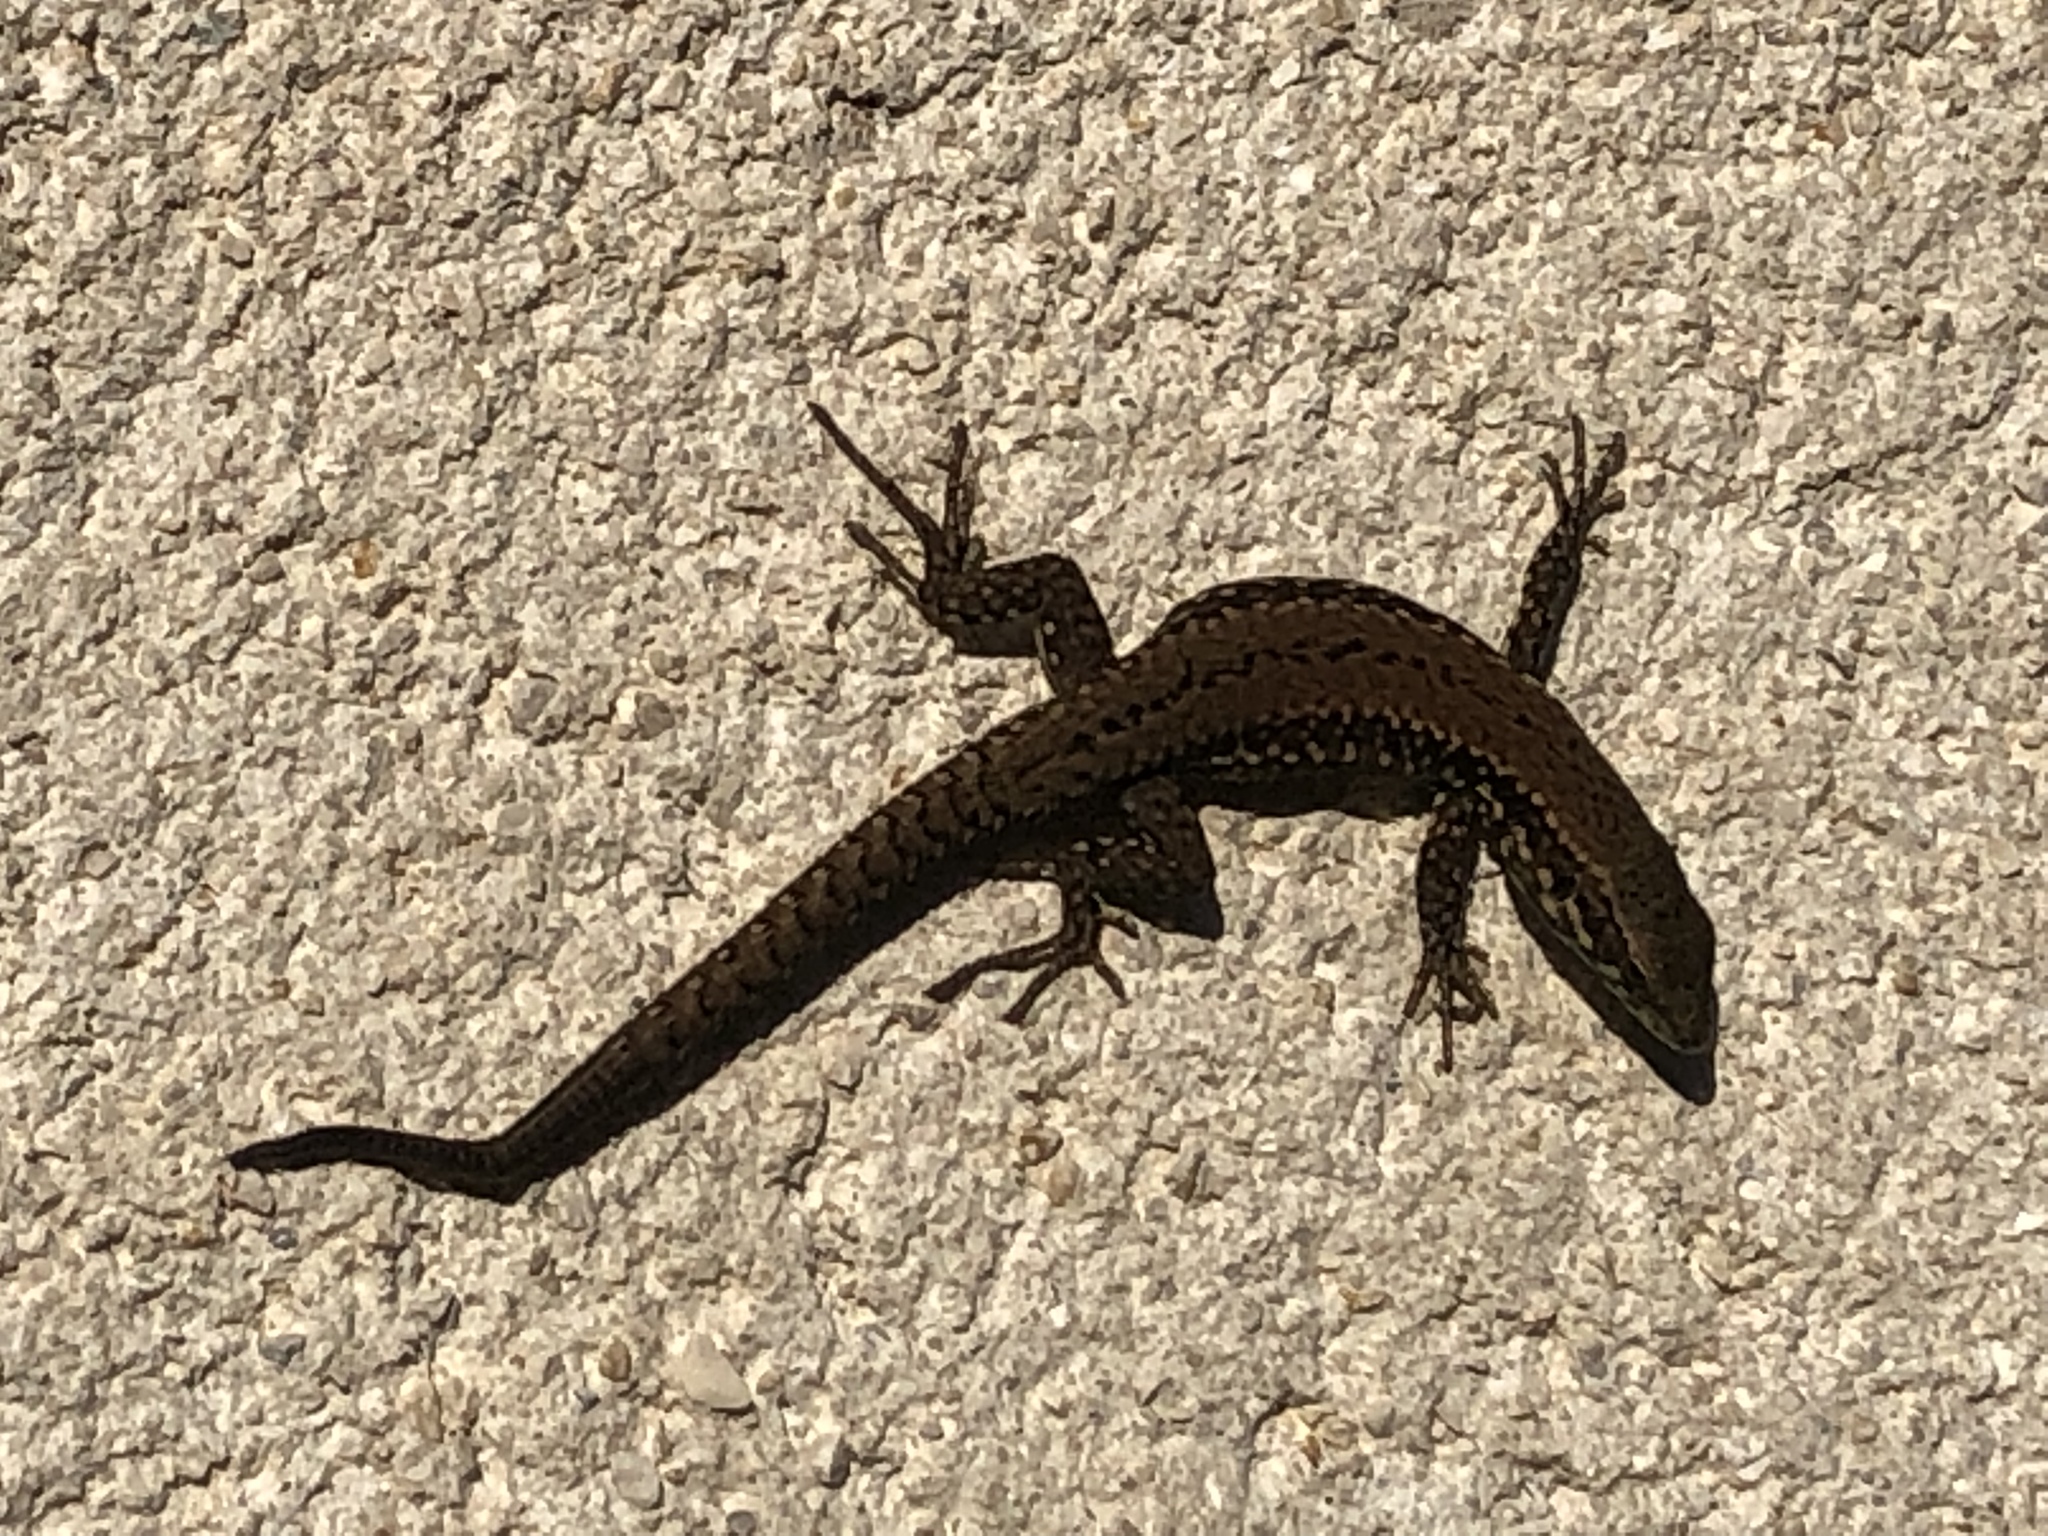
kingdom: Animalia
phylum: Chordata
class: Squamata
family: Lacertidae
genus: Podarcis
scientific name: Podarcis muralis
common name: Common wall lizard
